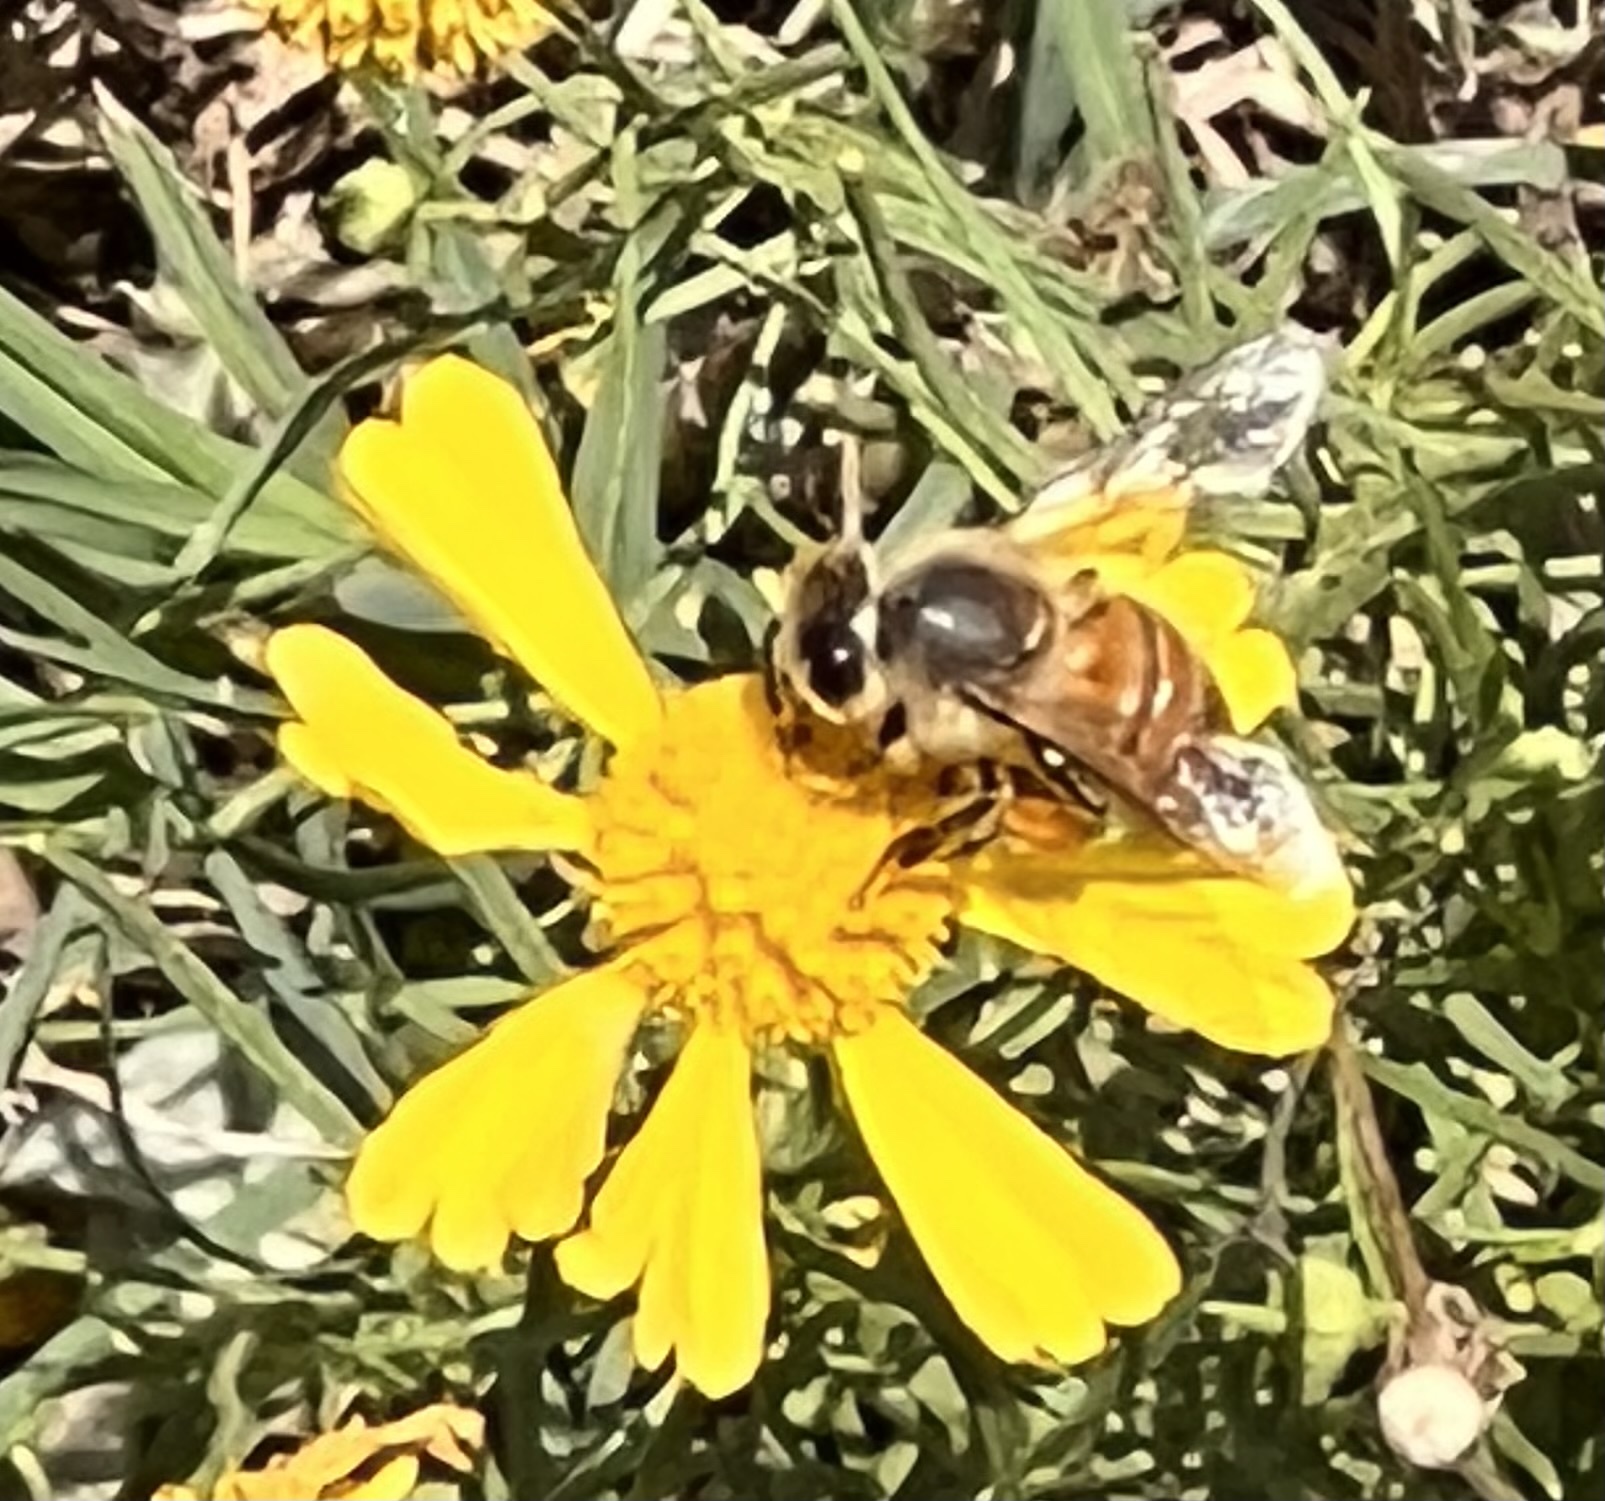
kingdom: Animalia
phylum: Arthropoda
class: Insecta
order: Hymenoptera
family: Apidae
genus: Apis
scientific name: Apis mellifera
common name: Honey bee
